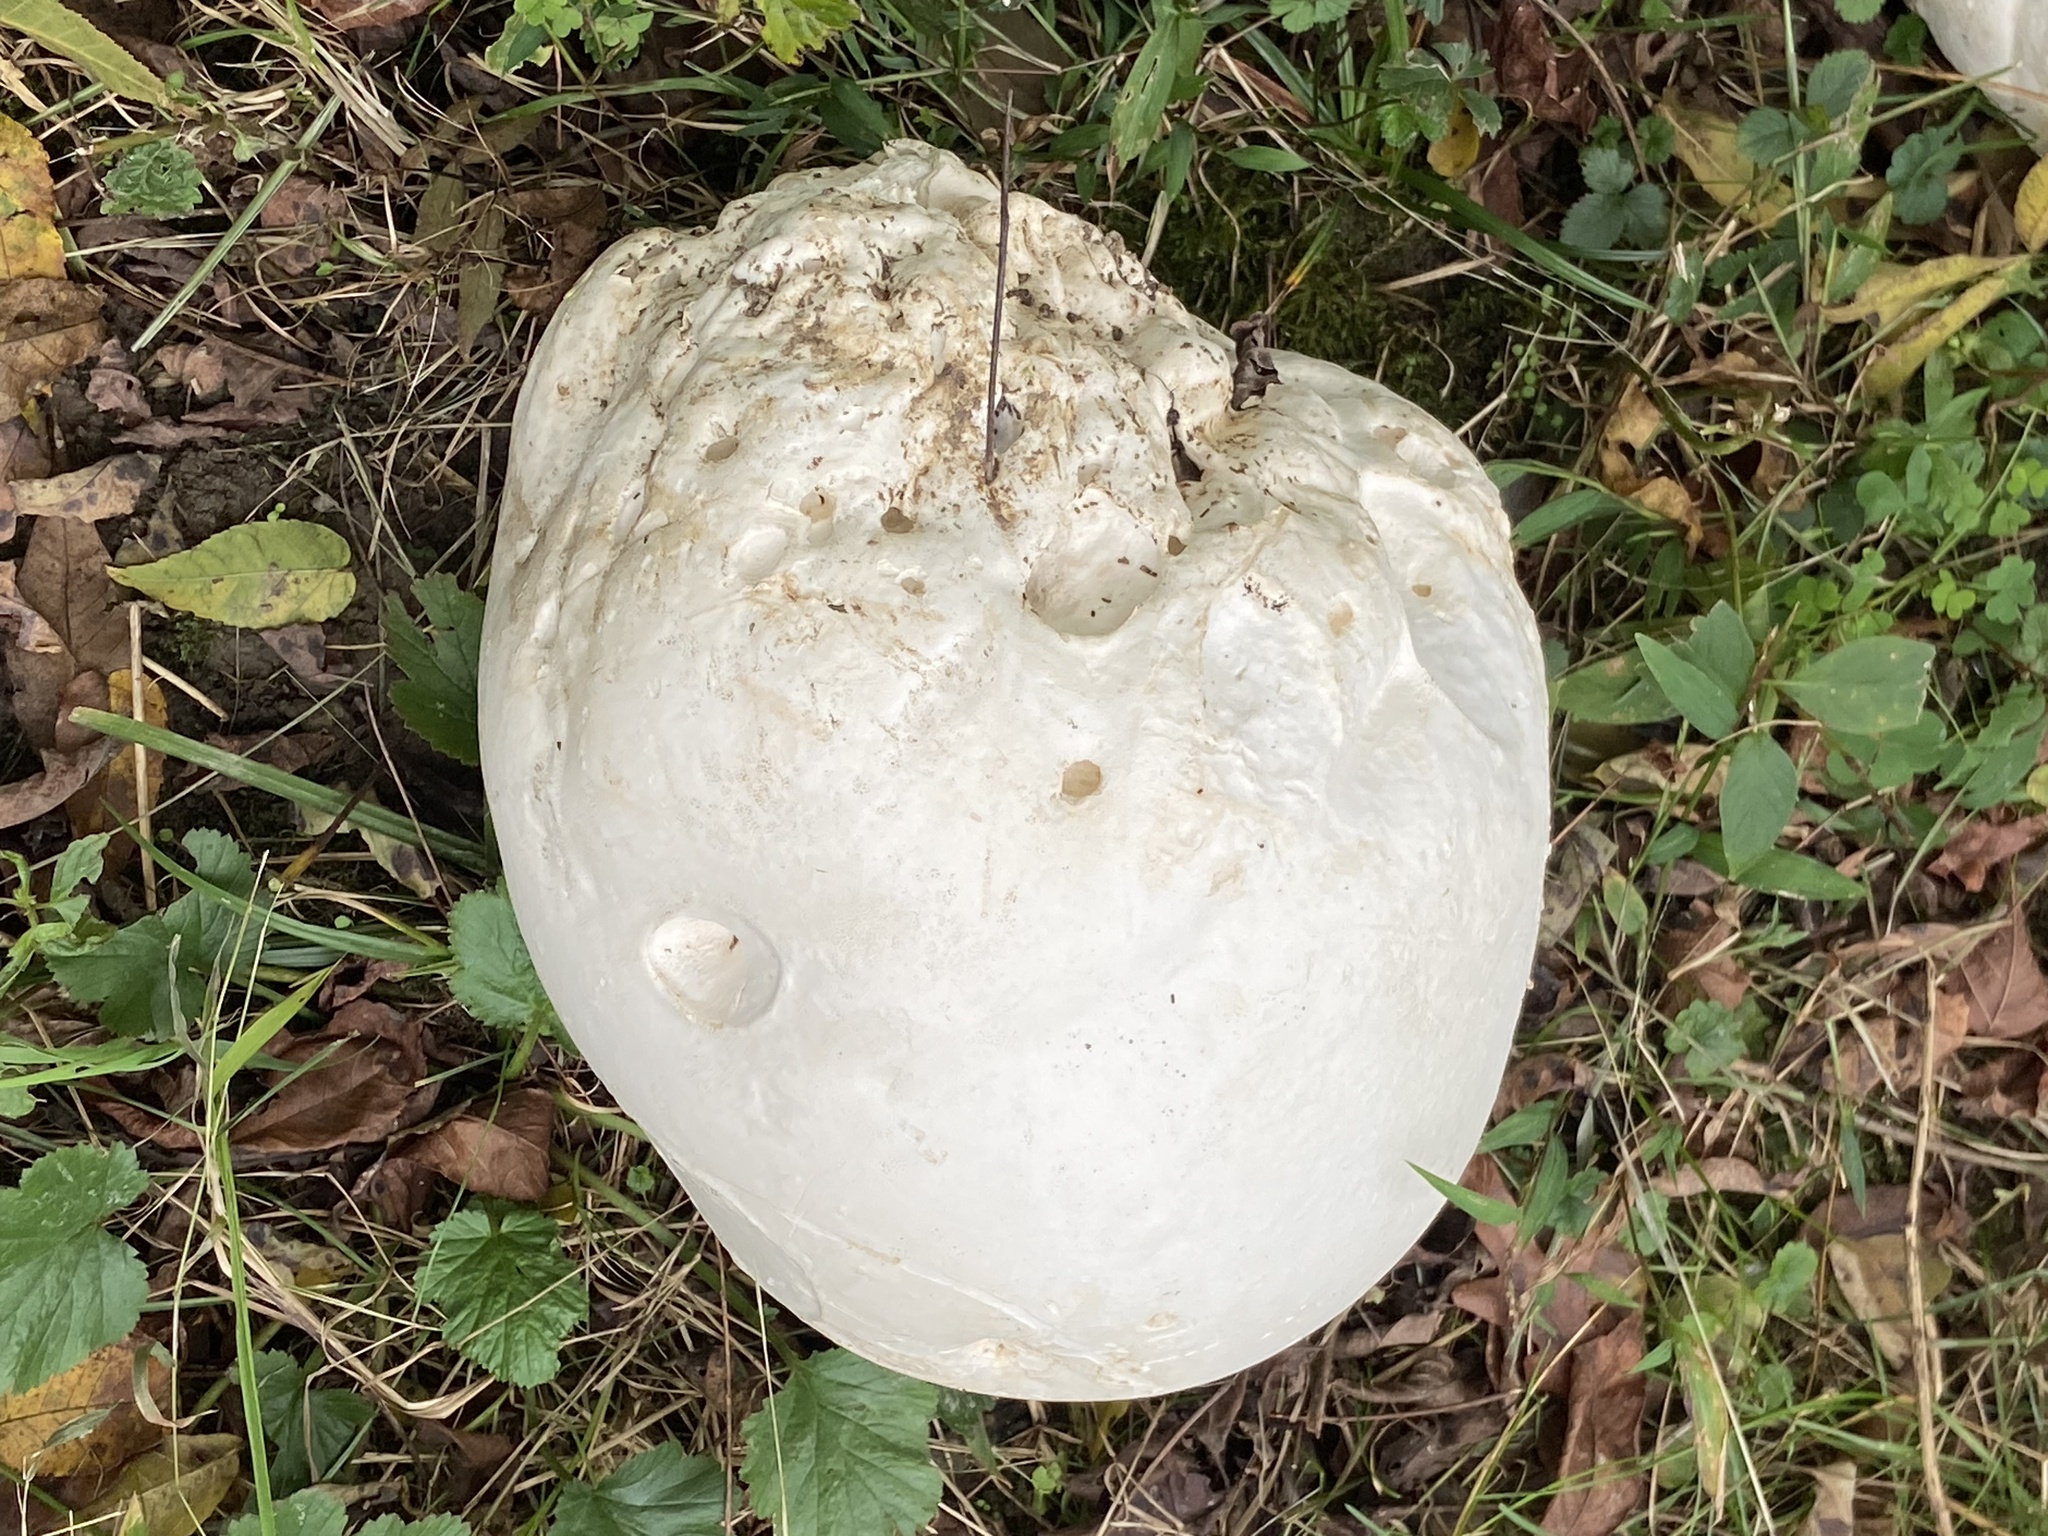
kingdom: Fungi
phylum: Basidiomycota
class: Agaricomycetes
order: Agaricales
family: Lycoperdaceae
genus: Calvatia
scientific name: Calvatia gigantea
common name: Giant puffball
